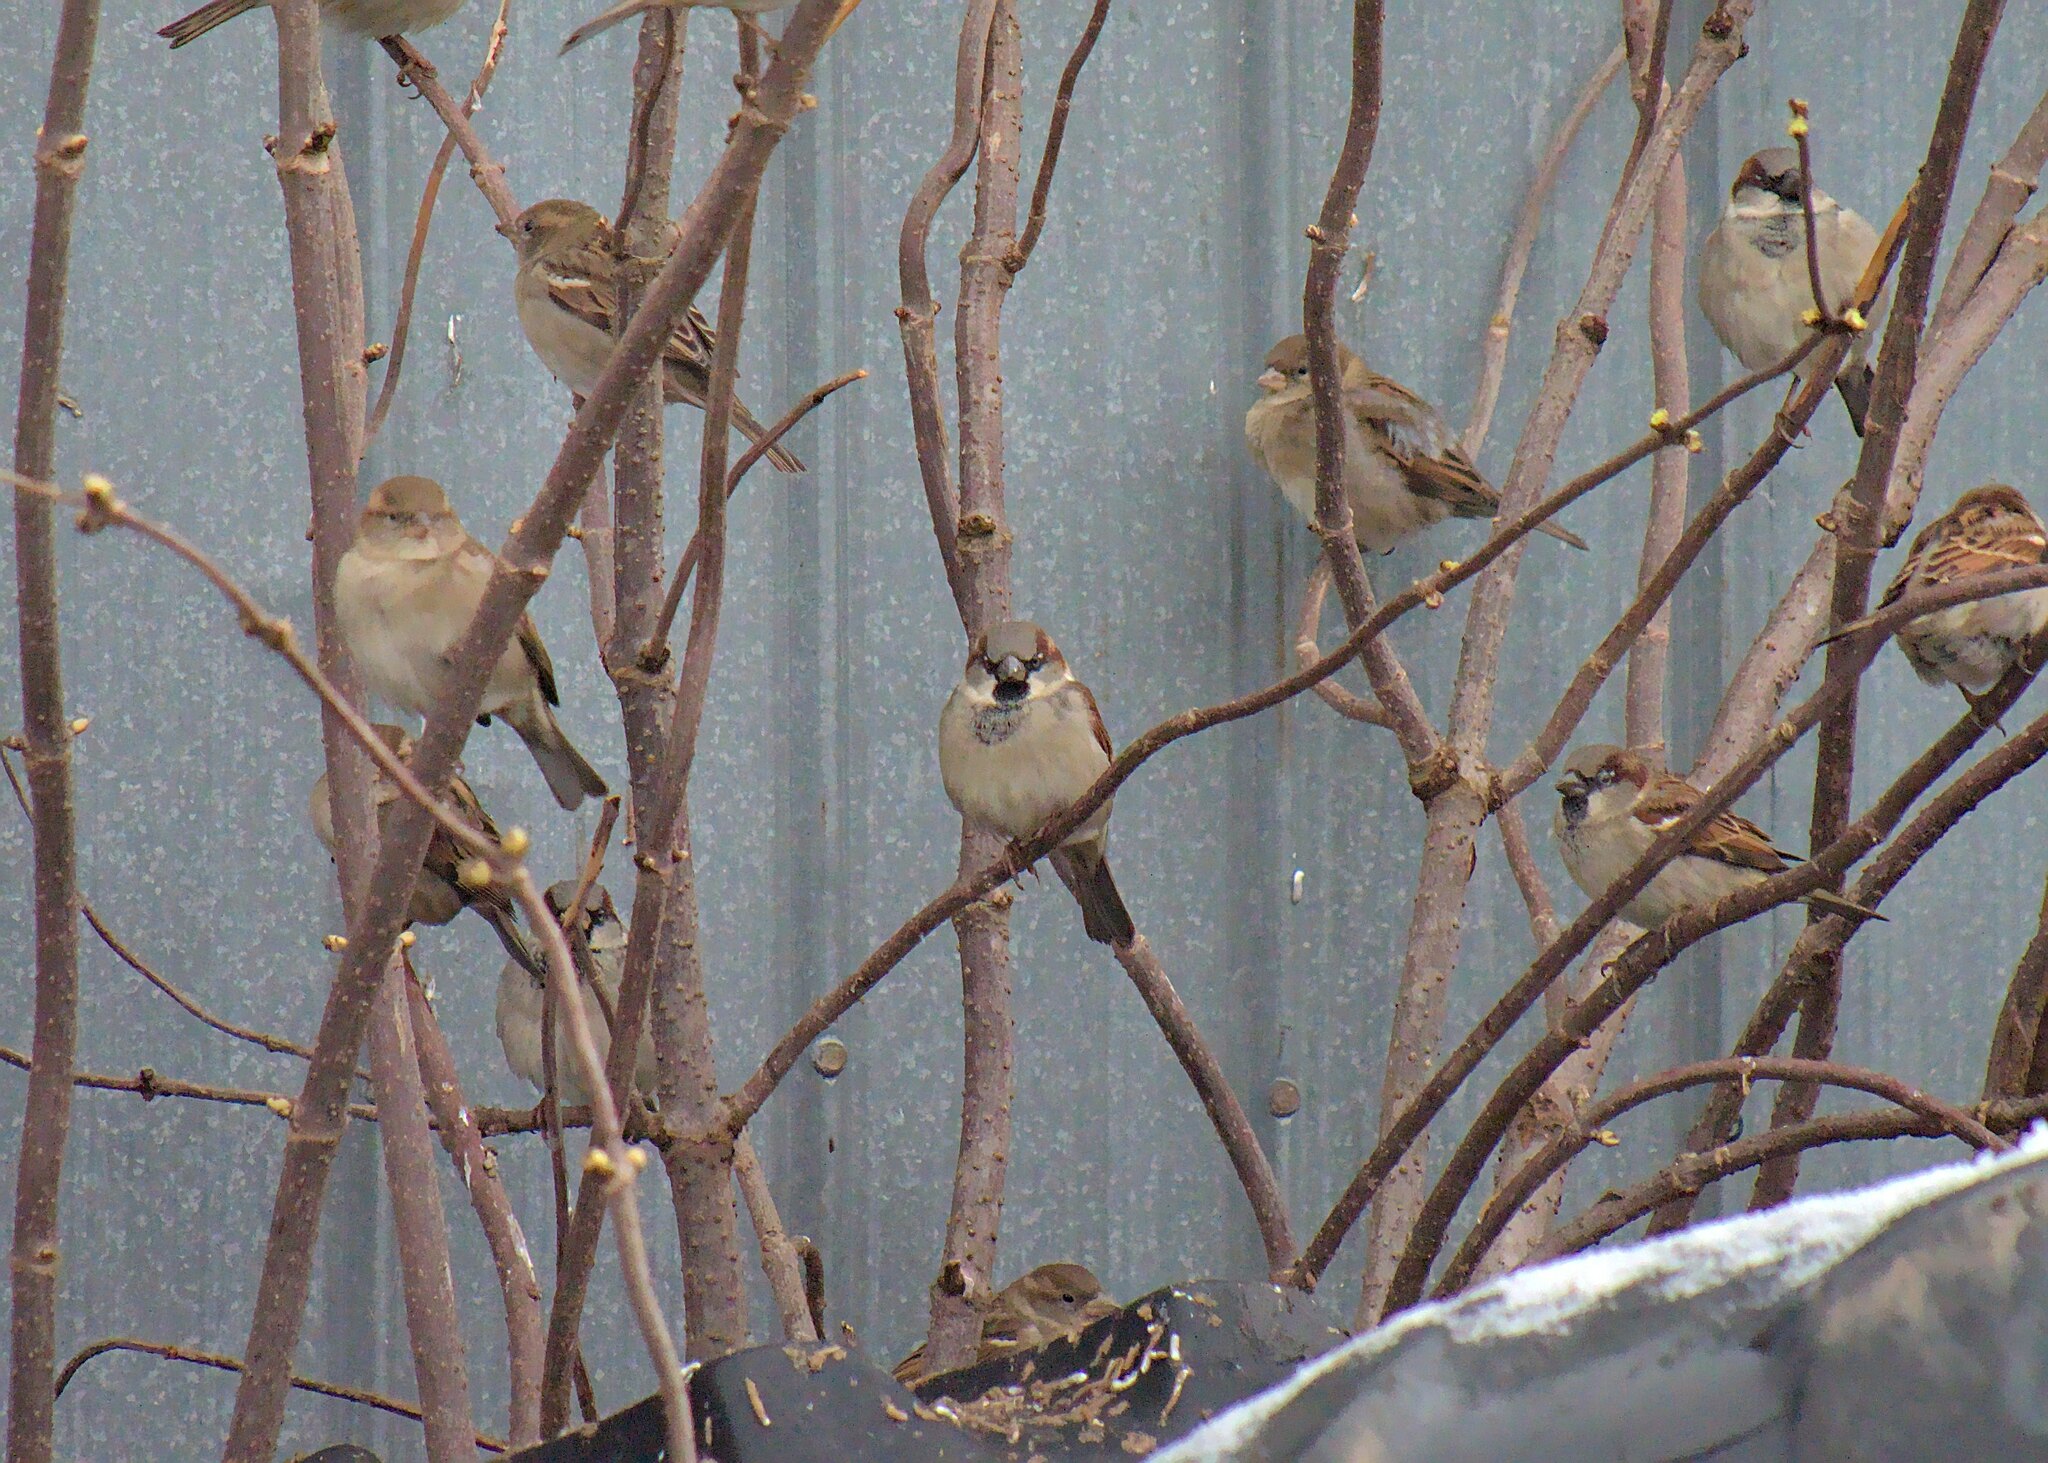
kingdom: Animalia
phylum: Chordata
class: Aves
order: Passeriformes
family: Passeridae
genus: Passer
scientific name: Passer domesticus
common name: House sparrow
